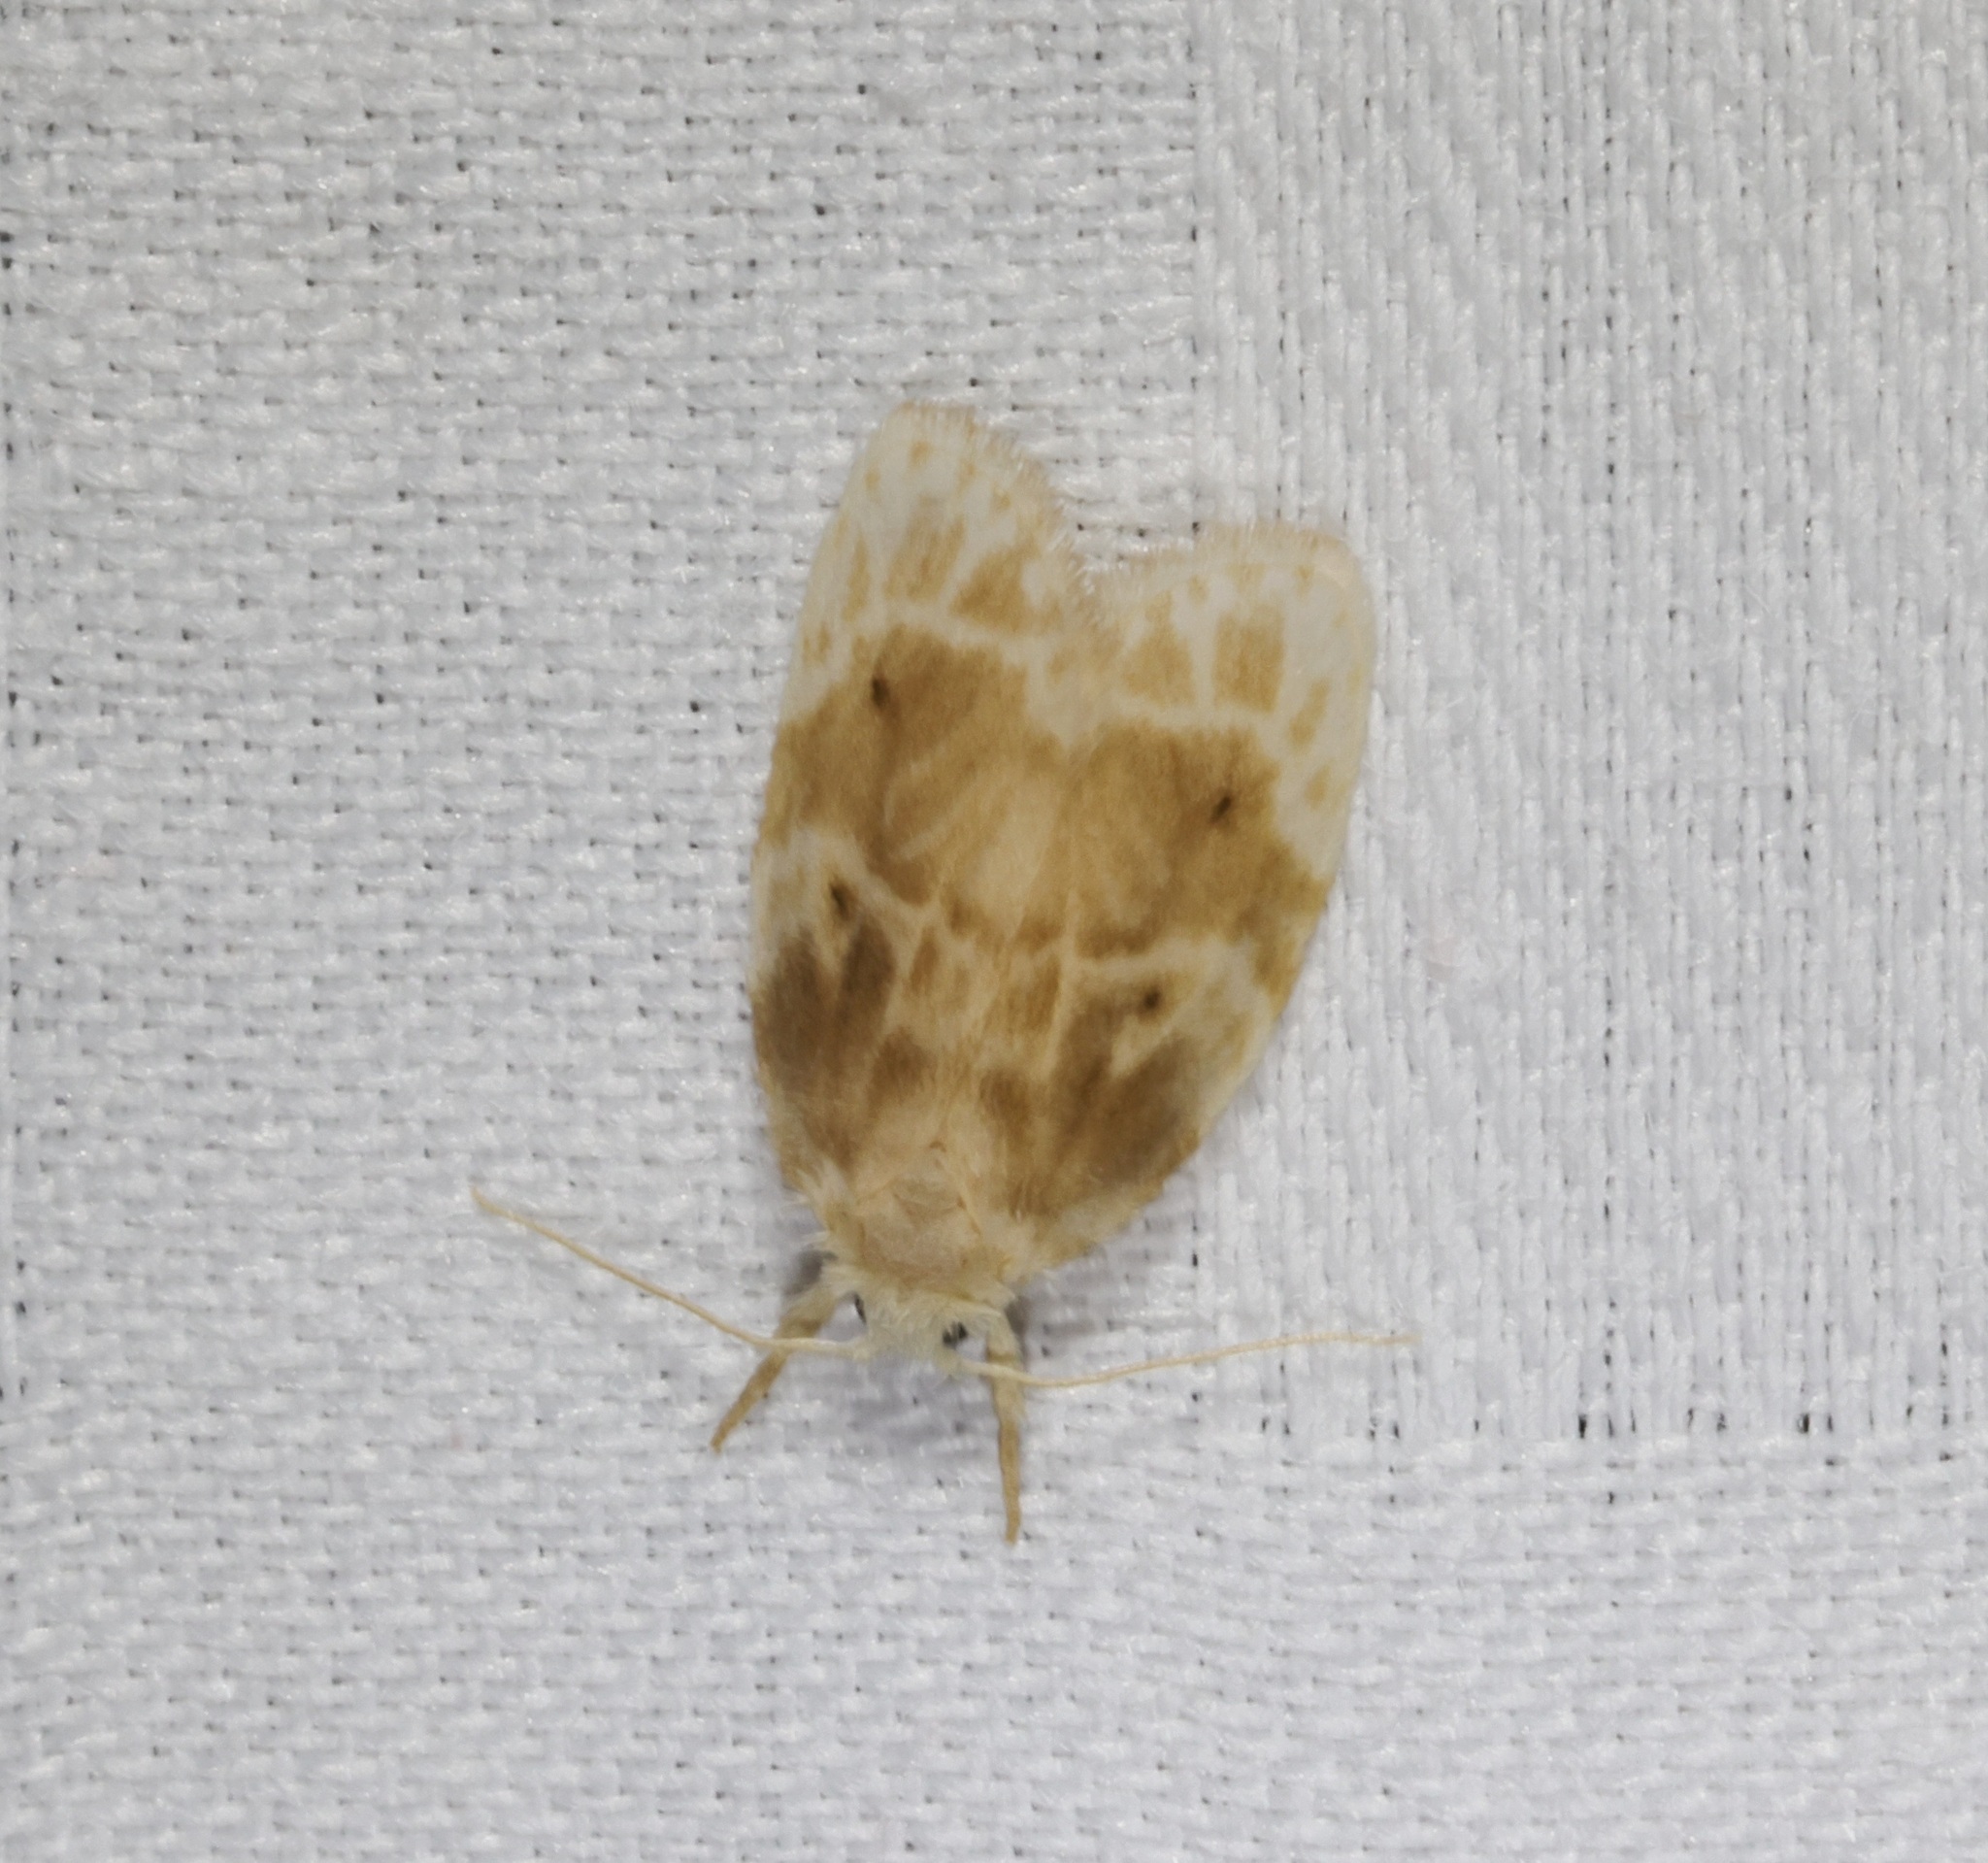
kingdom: Animalia
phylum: Arthropoda
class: Insecta
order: Lepidoptera
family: Erebidae
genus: Schistophleps
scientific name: Schistophleps bipuncta
